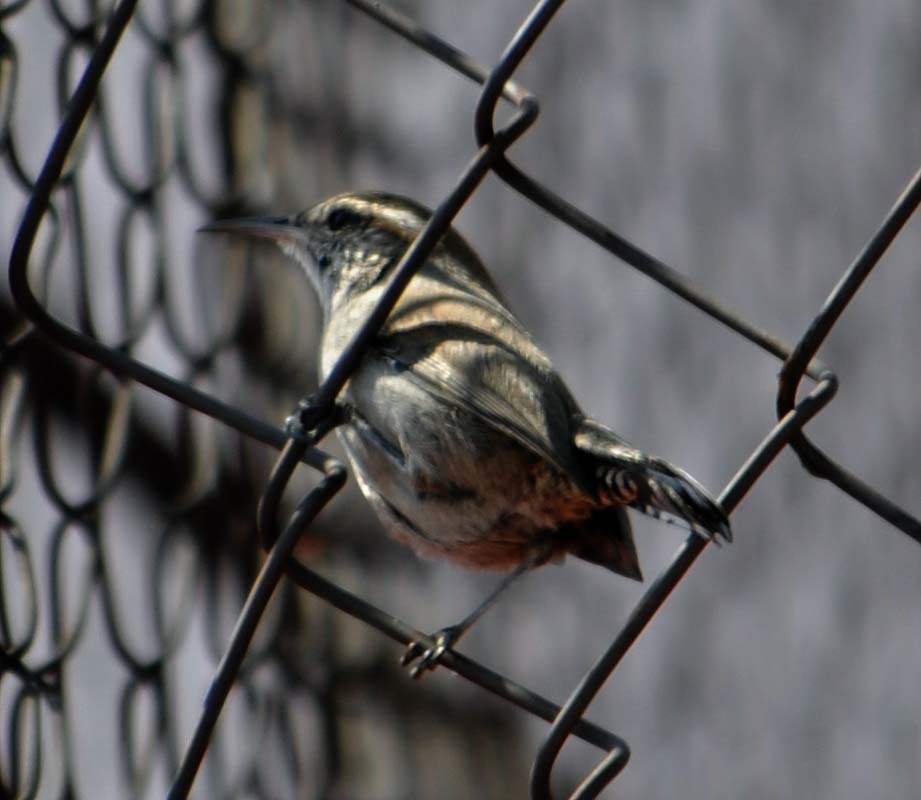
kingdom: Animalia
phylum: Chordata
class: Aves
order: Passeriformes
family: Troglodytidae
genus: Thryomanes
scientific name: Thryomanes bewickii
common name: Bewick's wren
